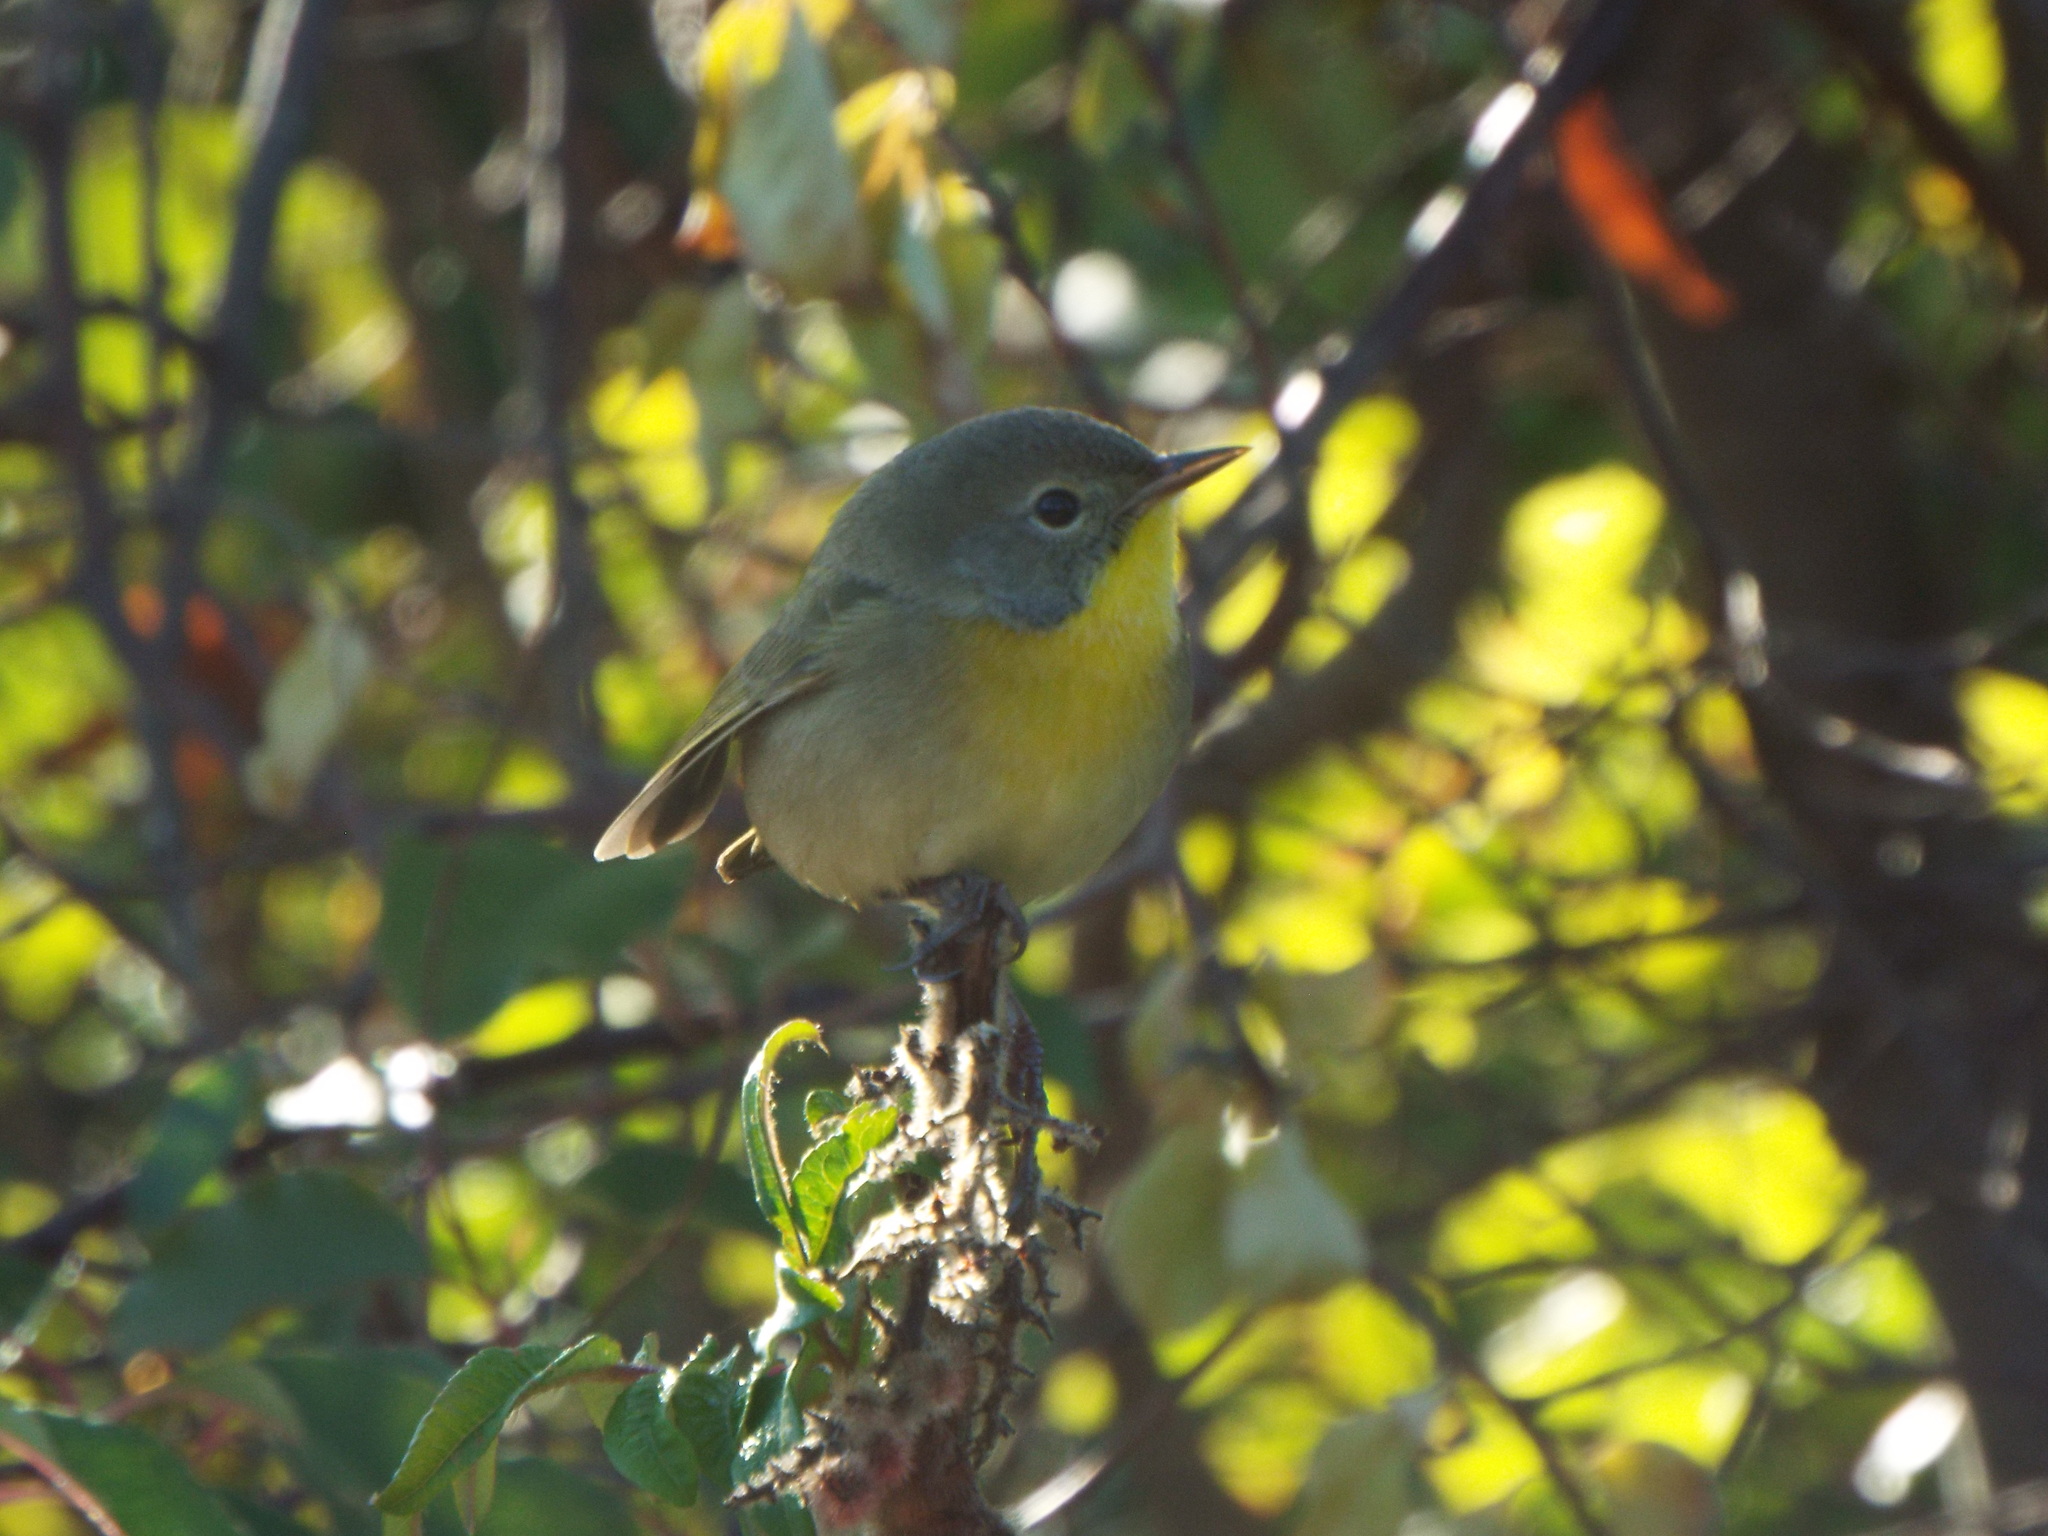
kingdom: Animalia
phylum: Chordata
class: Aves
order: Passeriformes
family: Parulidae
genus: Geothlypis
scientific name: Geothlypis trichas
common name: Common yellowthroat
